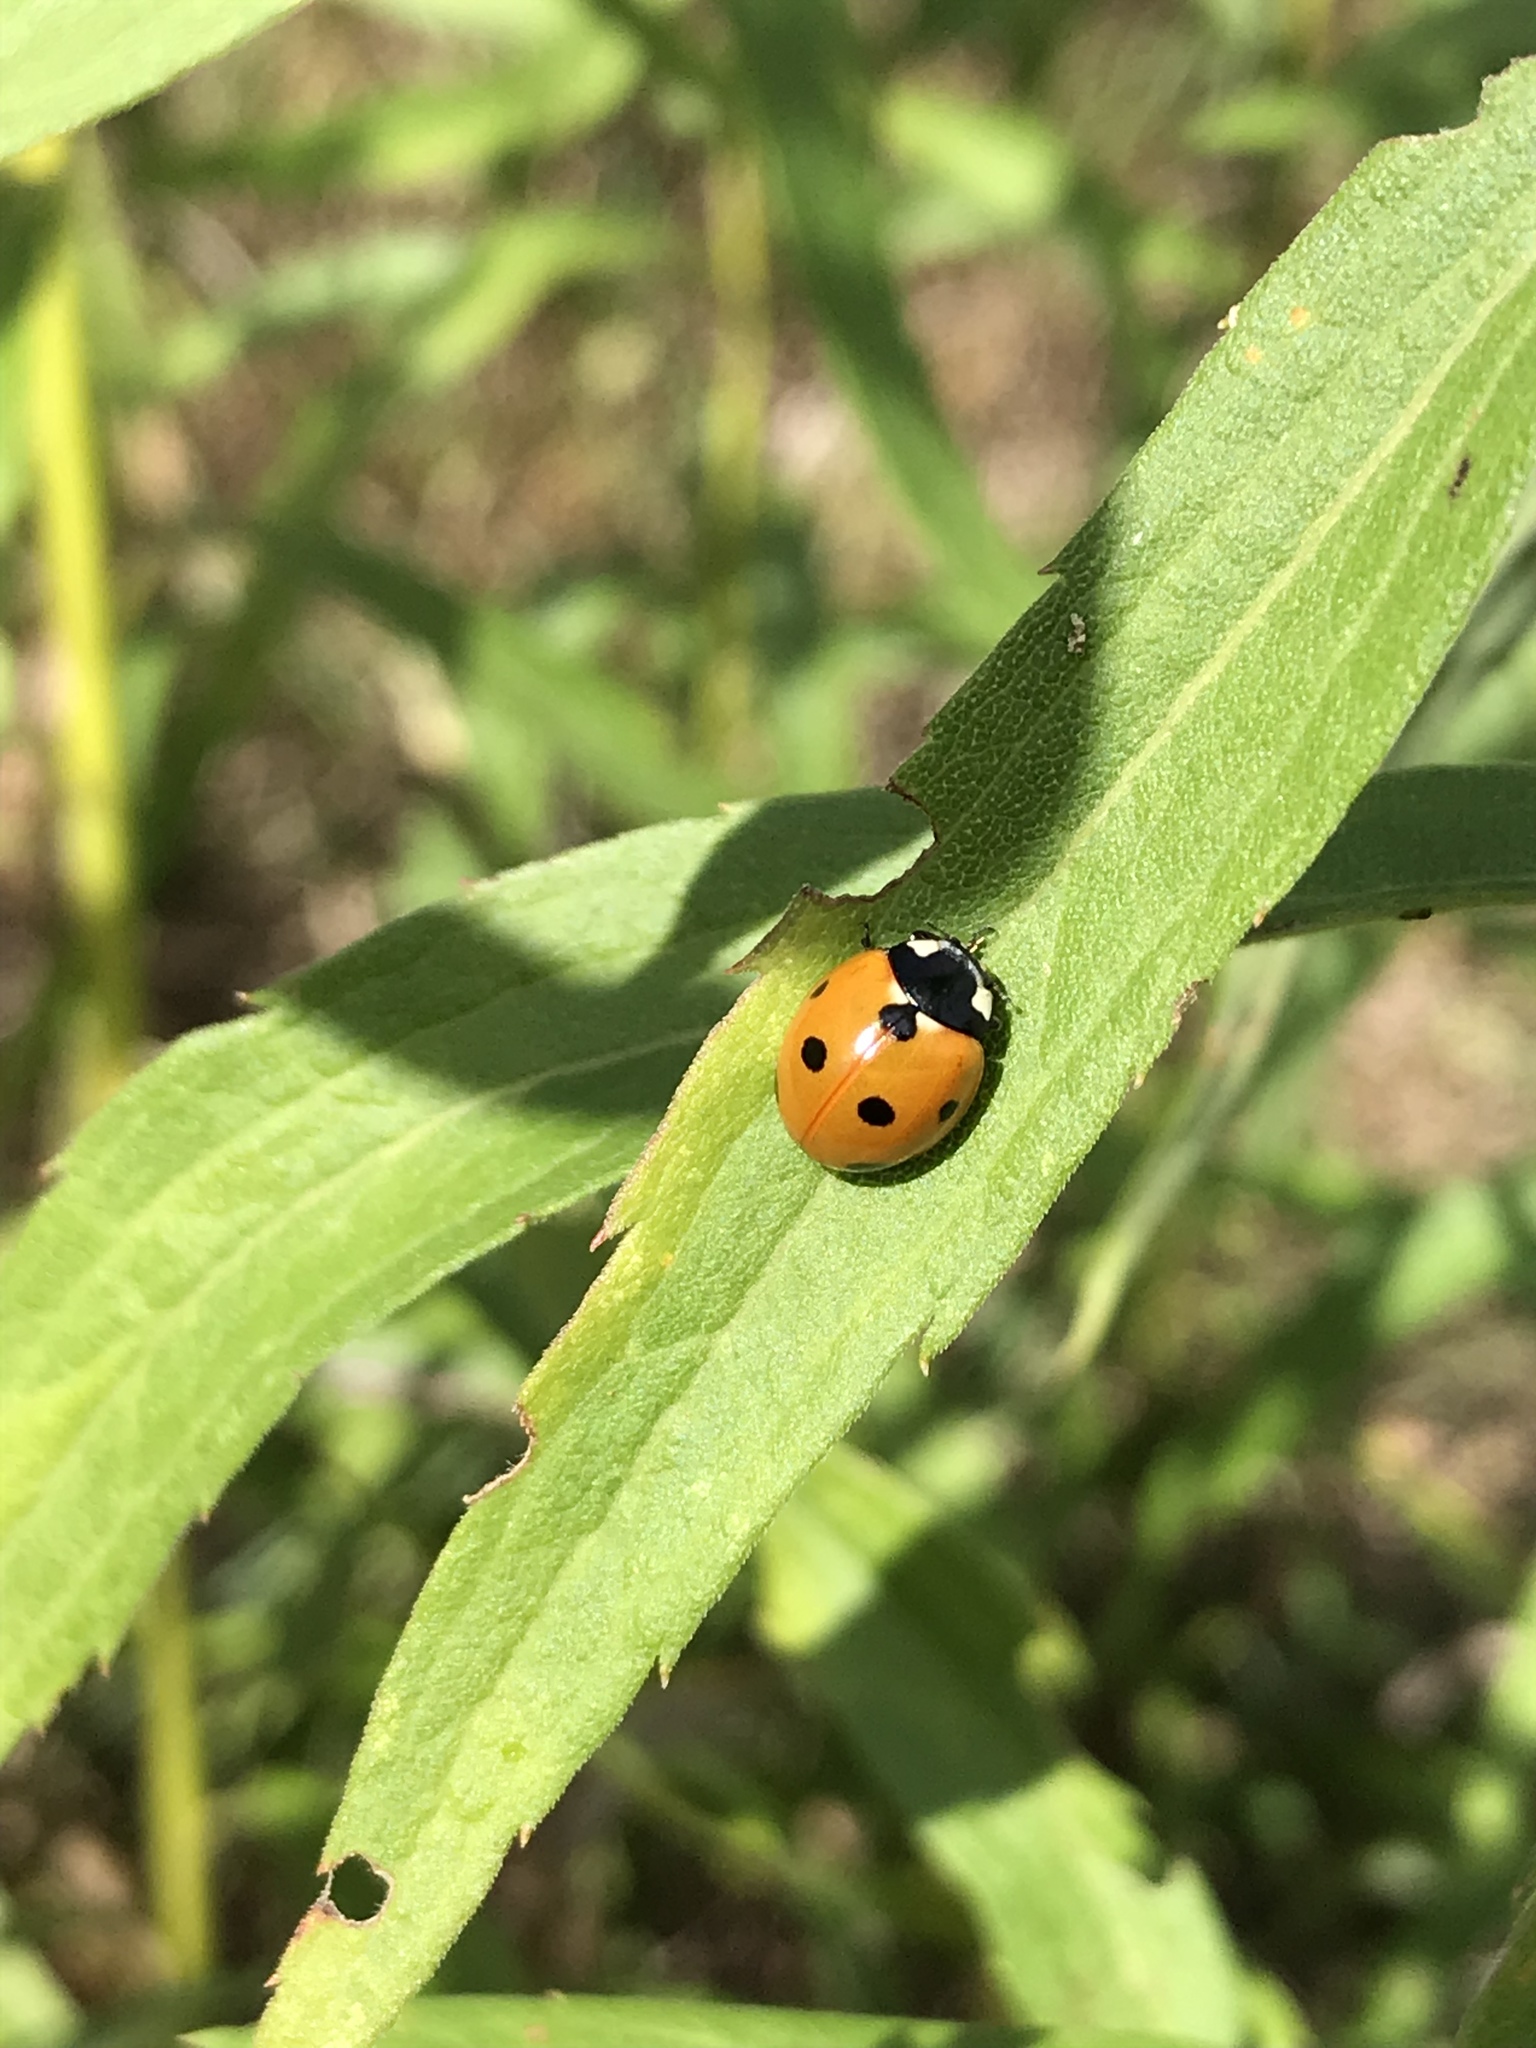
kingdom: Animalia
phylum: Arthropoda
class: Insecta
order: Coleoptera
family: Coccinellidae
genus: Coccinella
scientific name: Coccinella septempunctata
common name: Sevenspotted lady beetle
